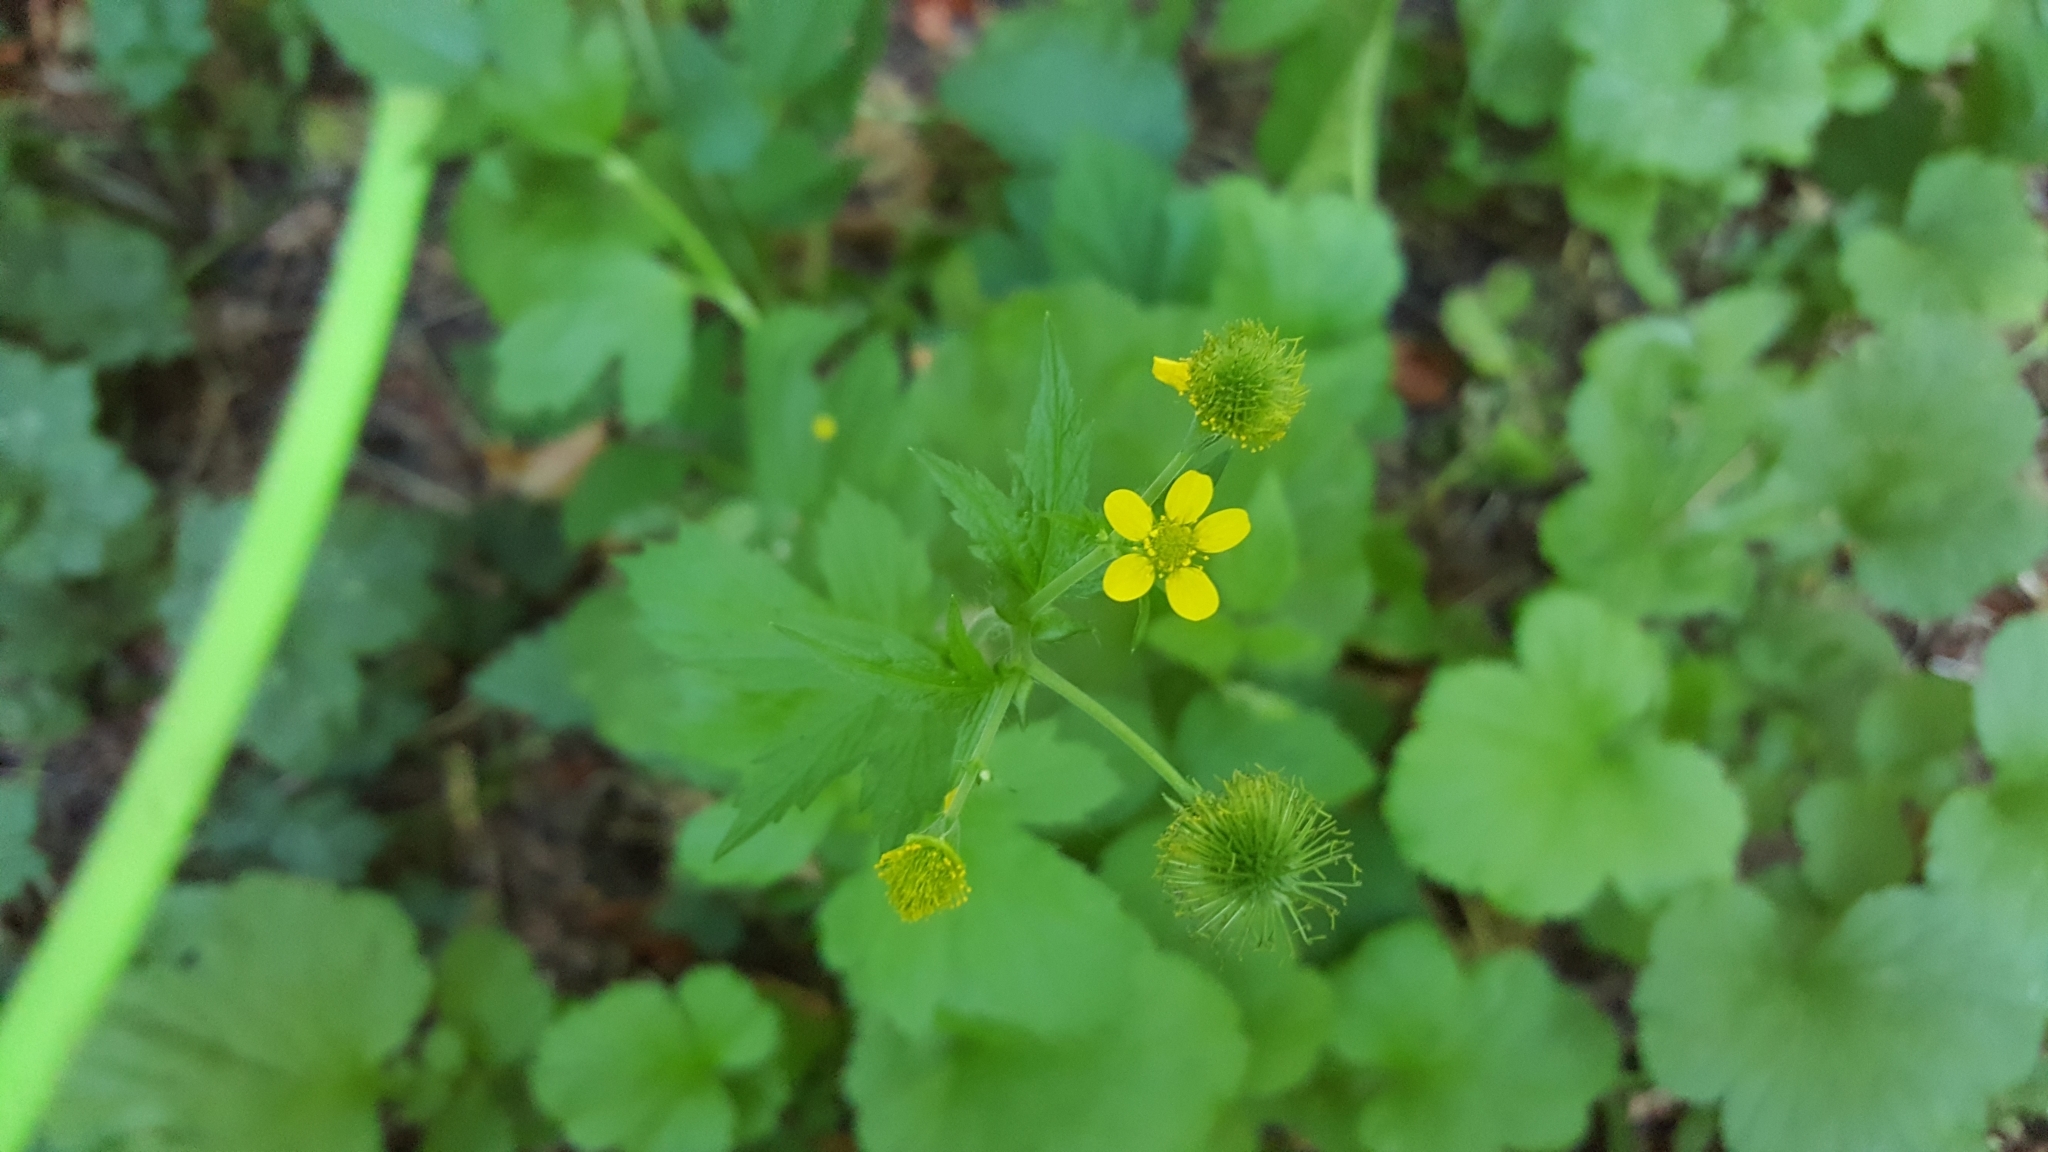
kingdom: Plantae
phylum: Tracheophyta
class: Magnoliopsida
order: Rosales
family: Rosaceae
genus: Geum
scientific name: Geum macrophyllum
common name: Large-leaved avens
